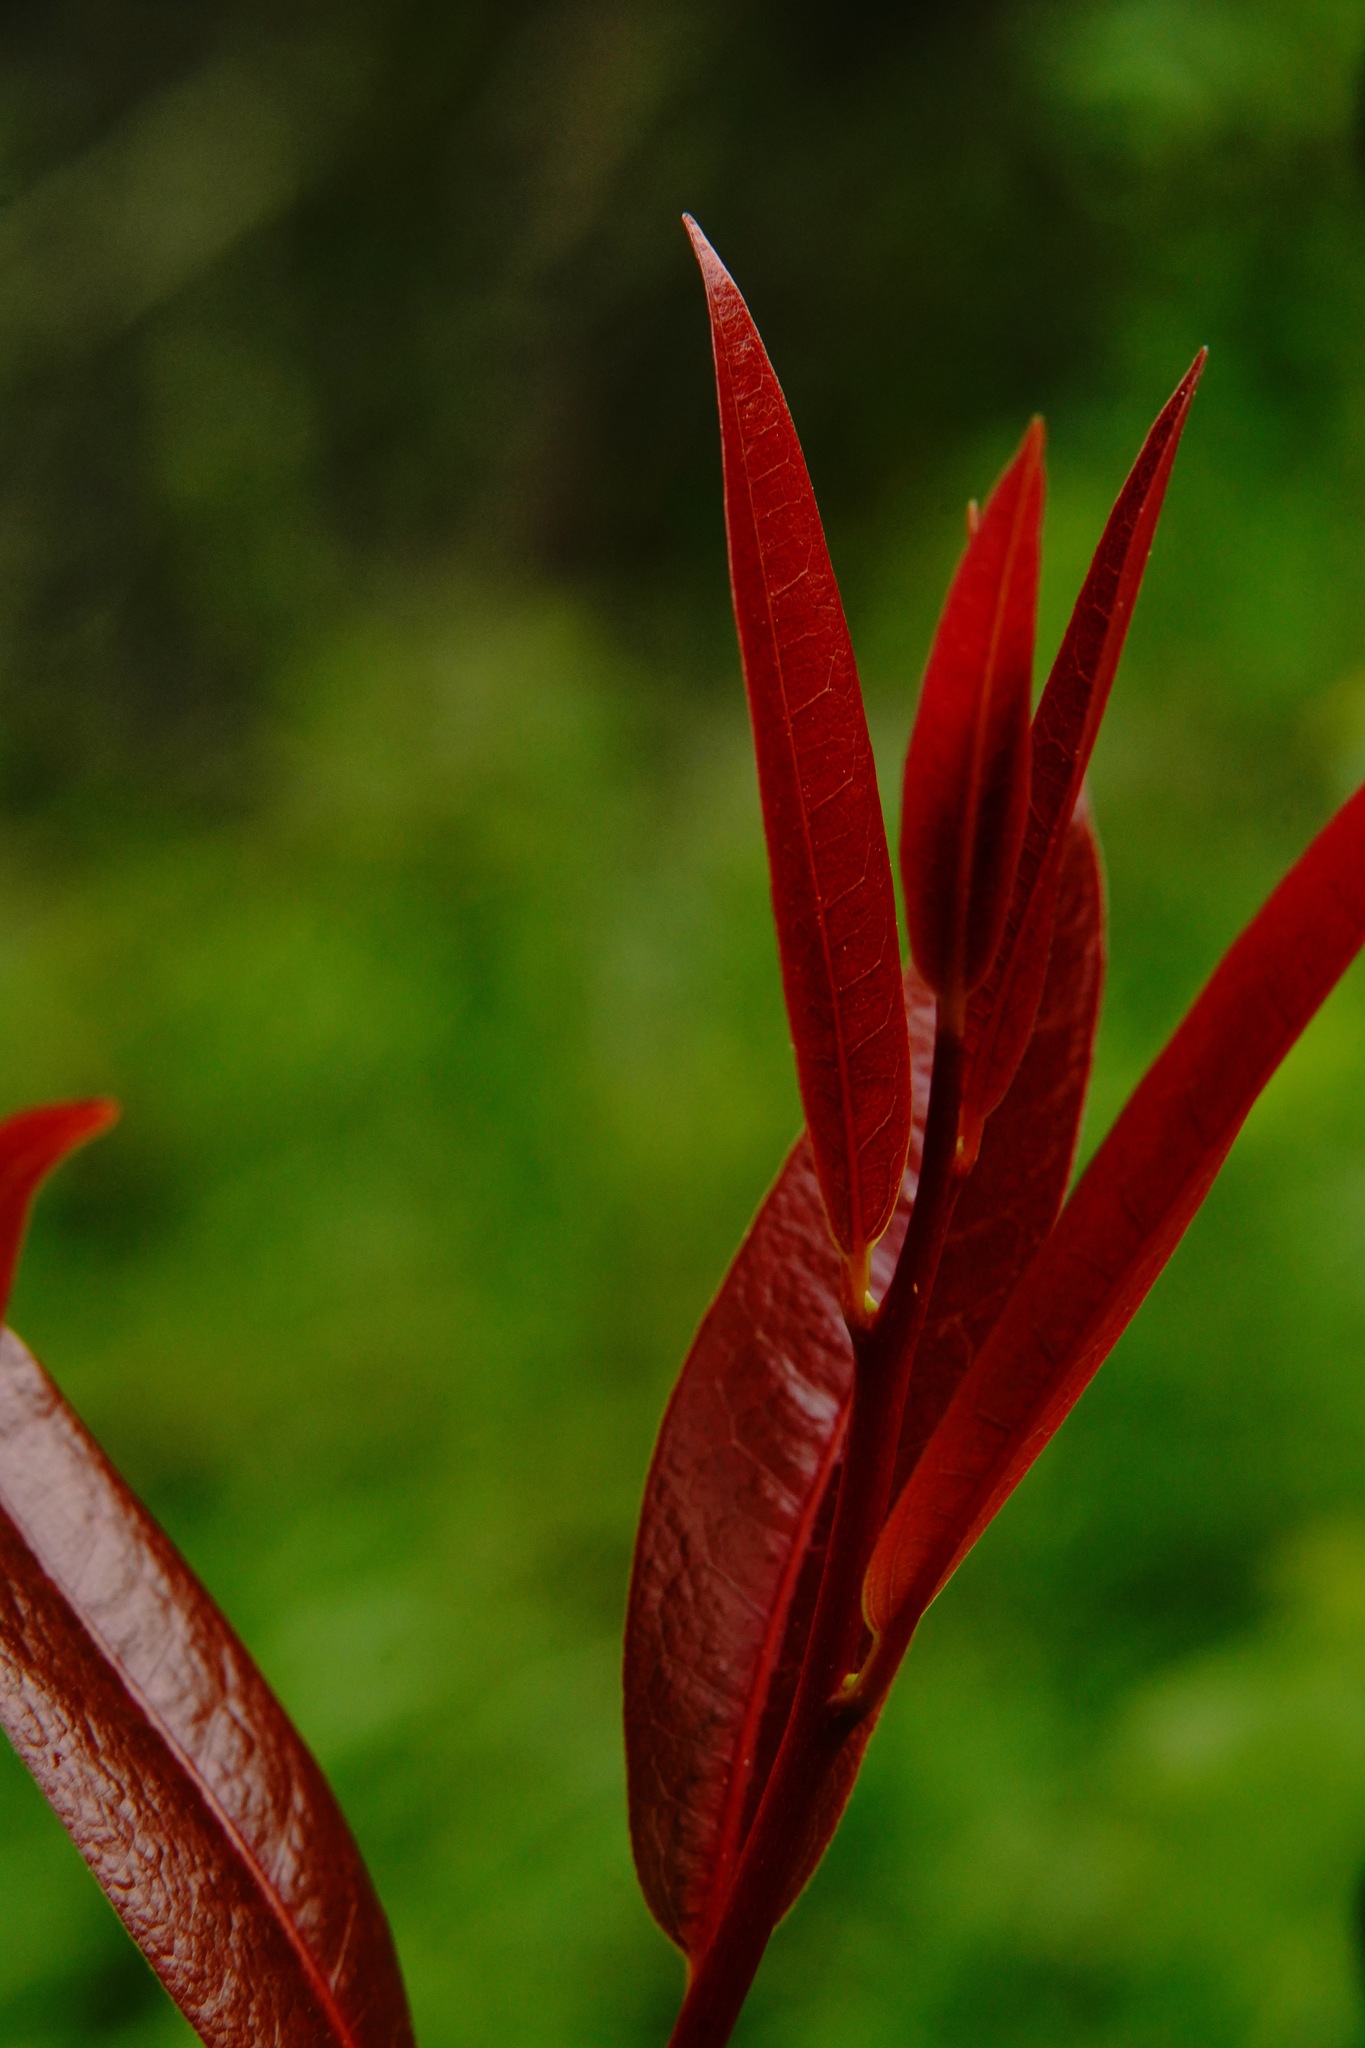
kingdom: Plantae
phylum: Tracheophyta
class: Magnoliopsida
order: Laurales
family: Lauraceae
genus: Umbellularia
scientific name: Umbellularia californica
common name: California bay
